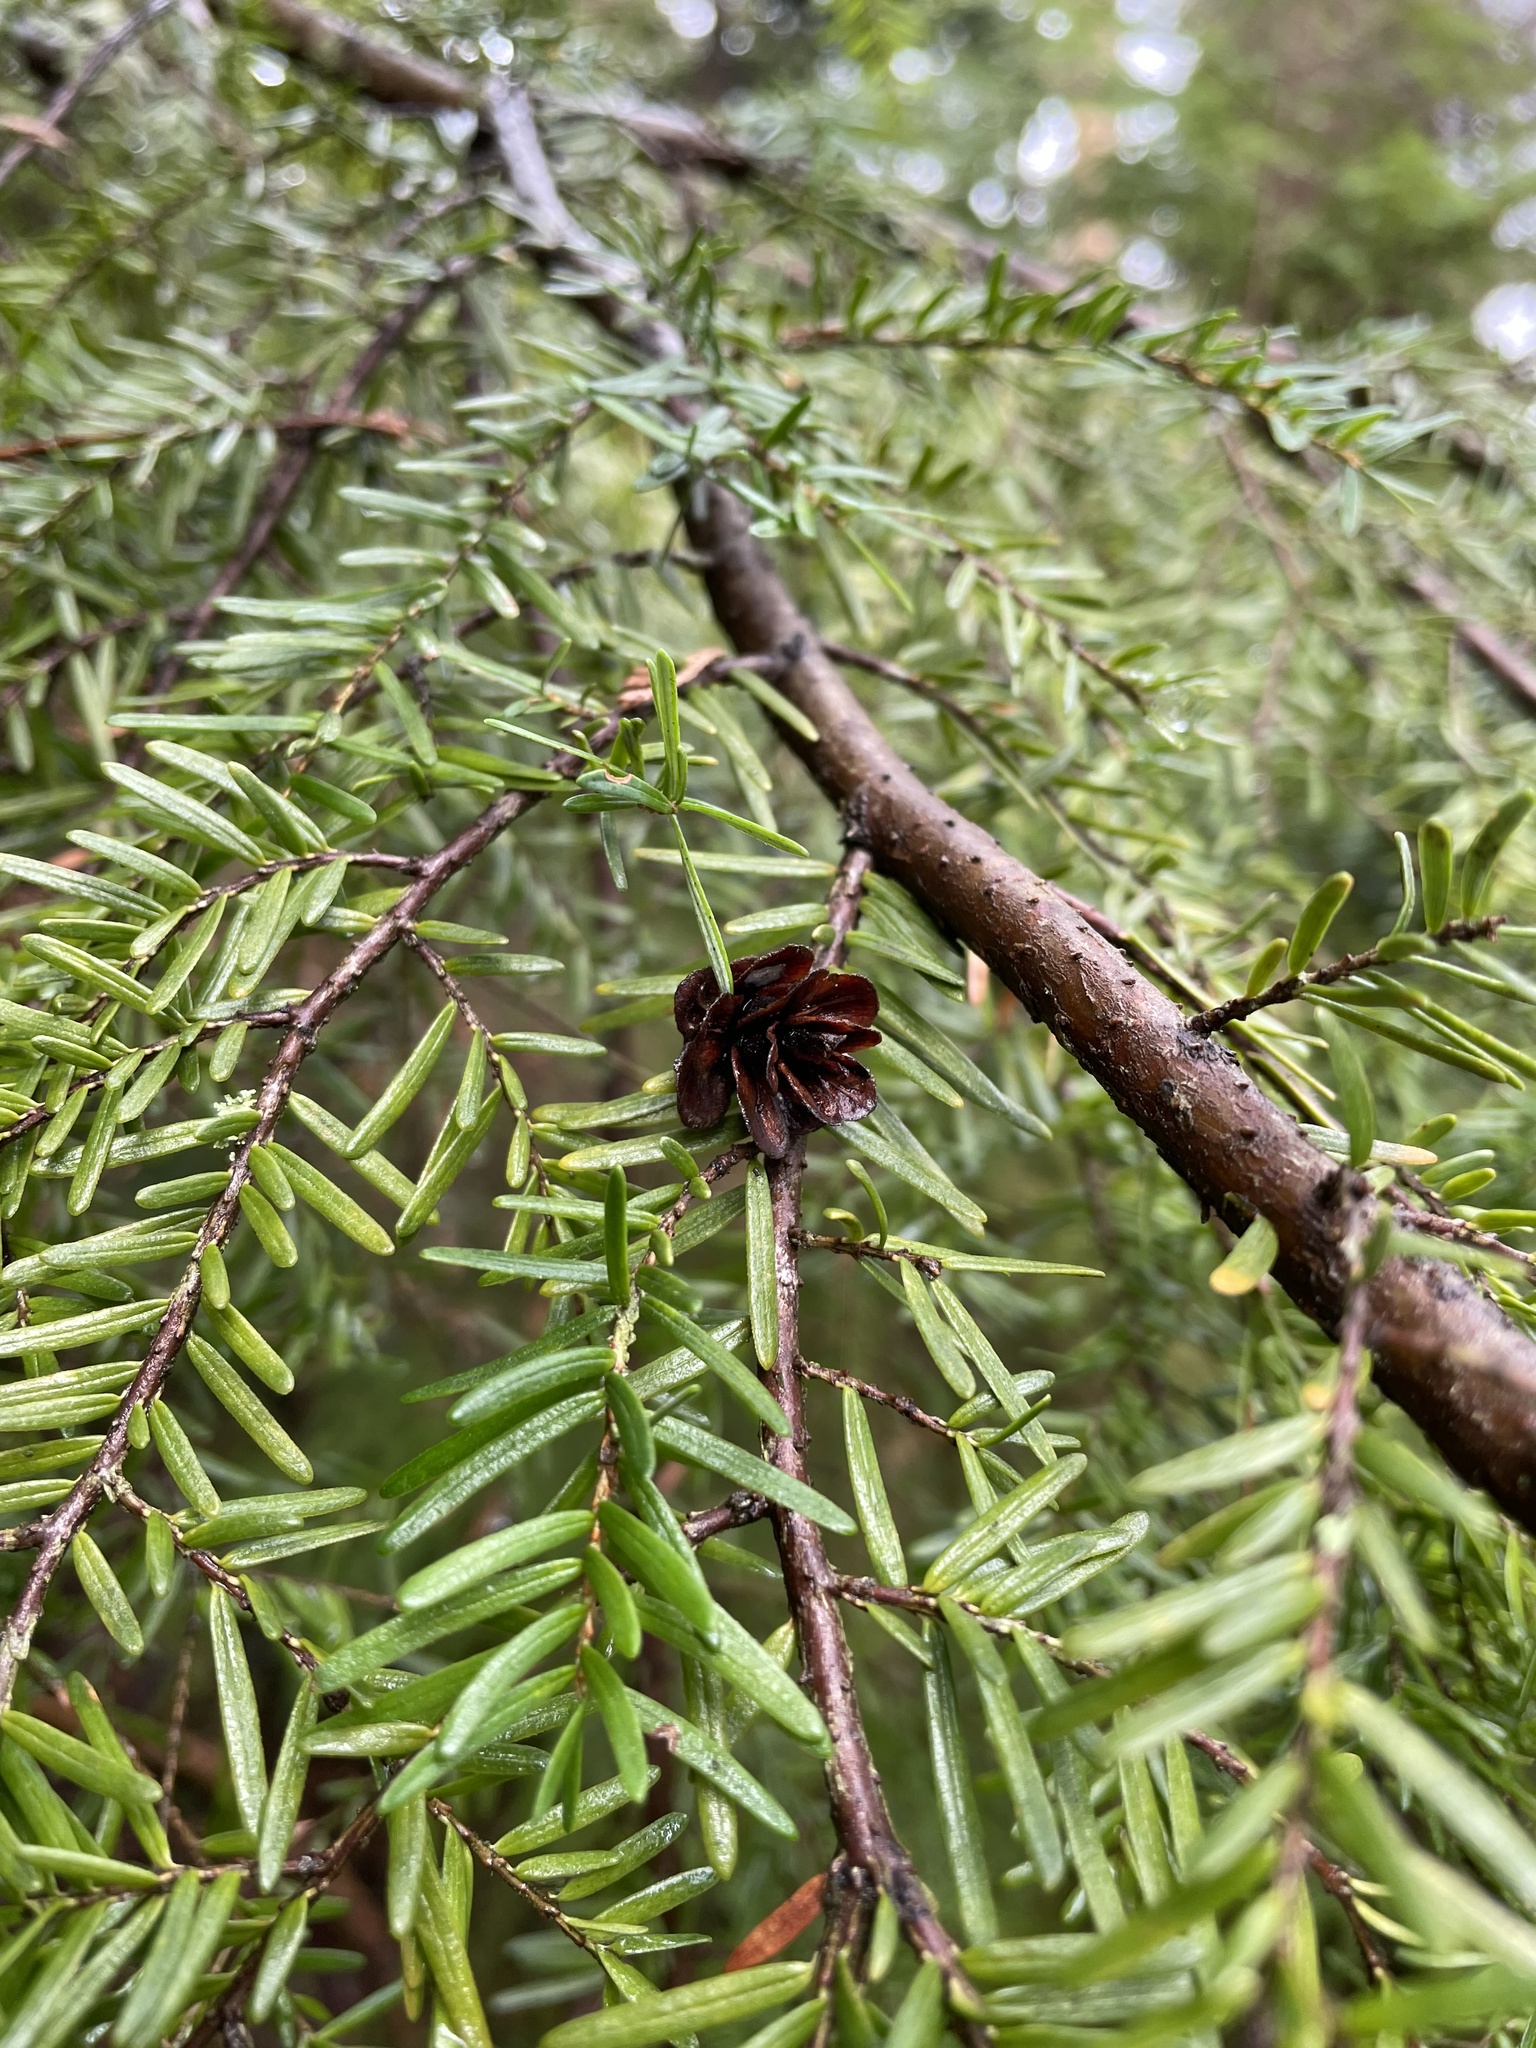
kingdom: Plantae
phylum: Tracheophyta
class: Pinopsida
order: Pinales
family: Pinaceae
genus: Tsuga
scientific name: Tsuga heterophylla
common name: Western hemlock
